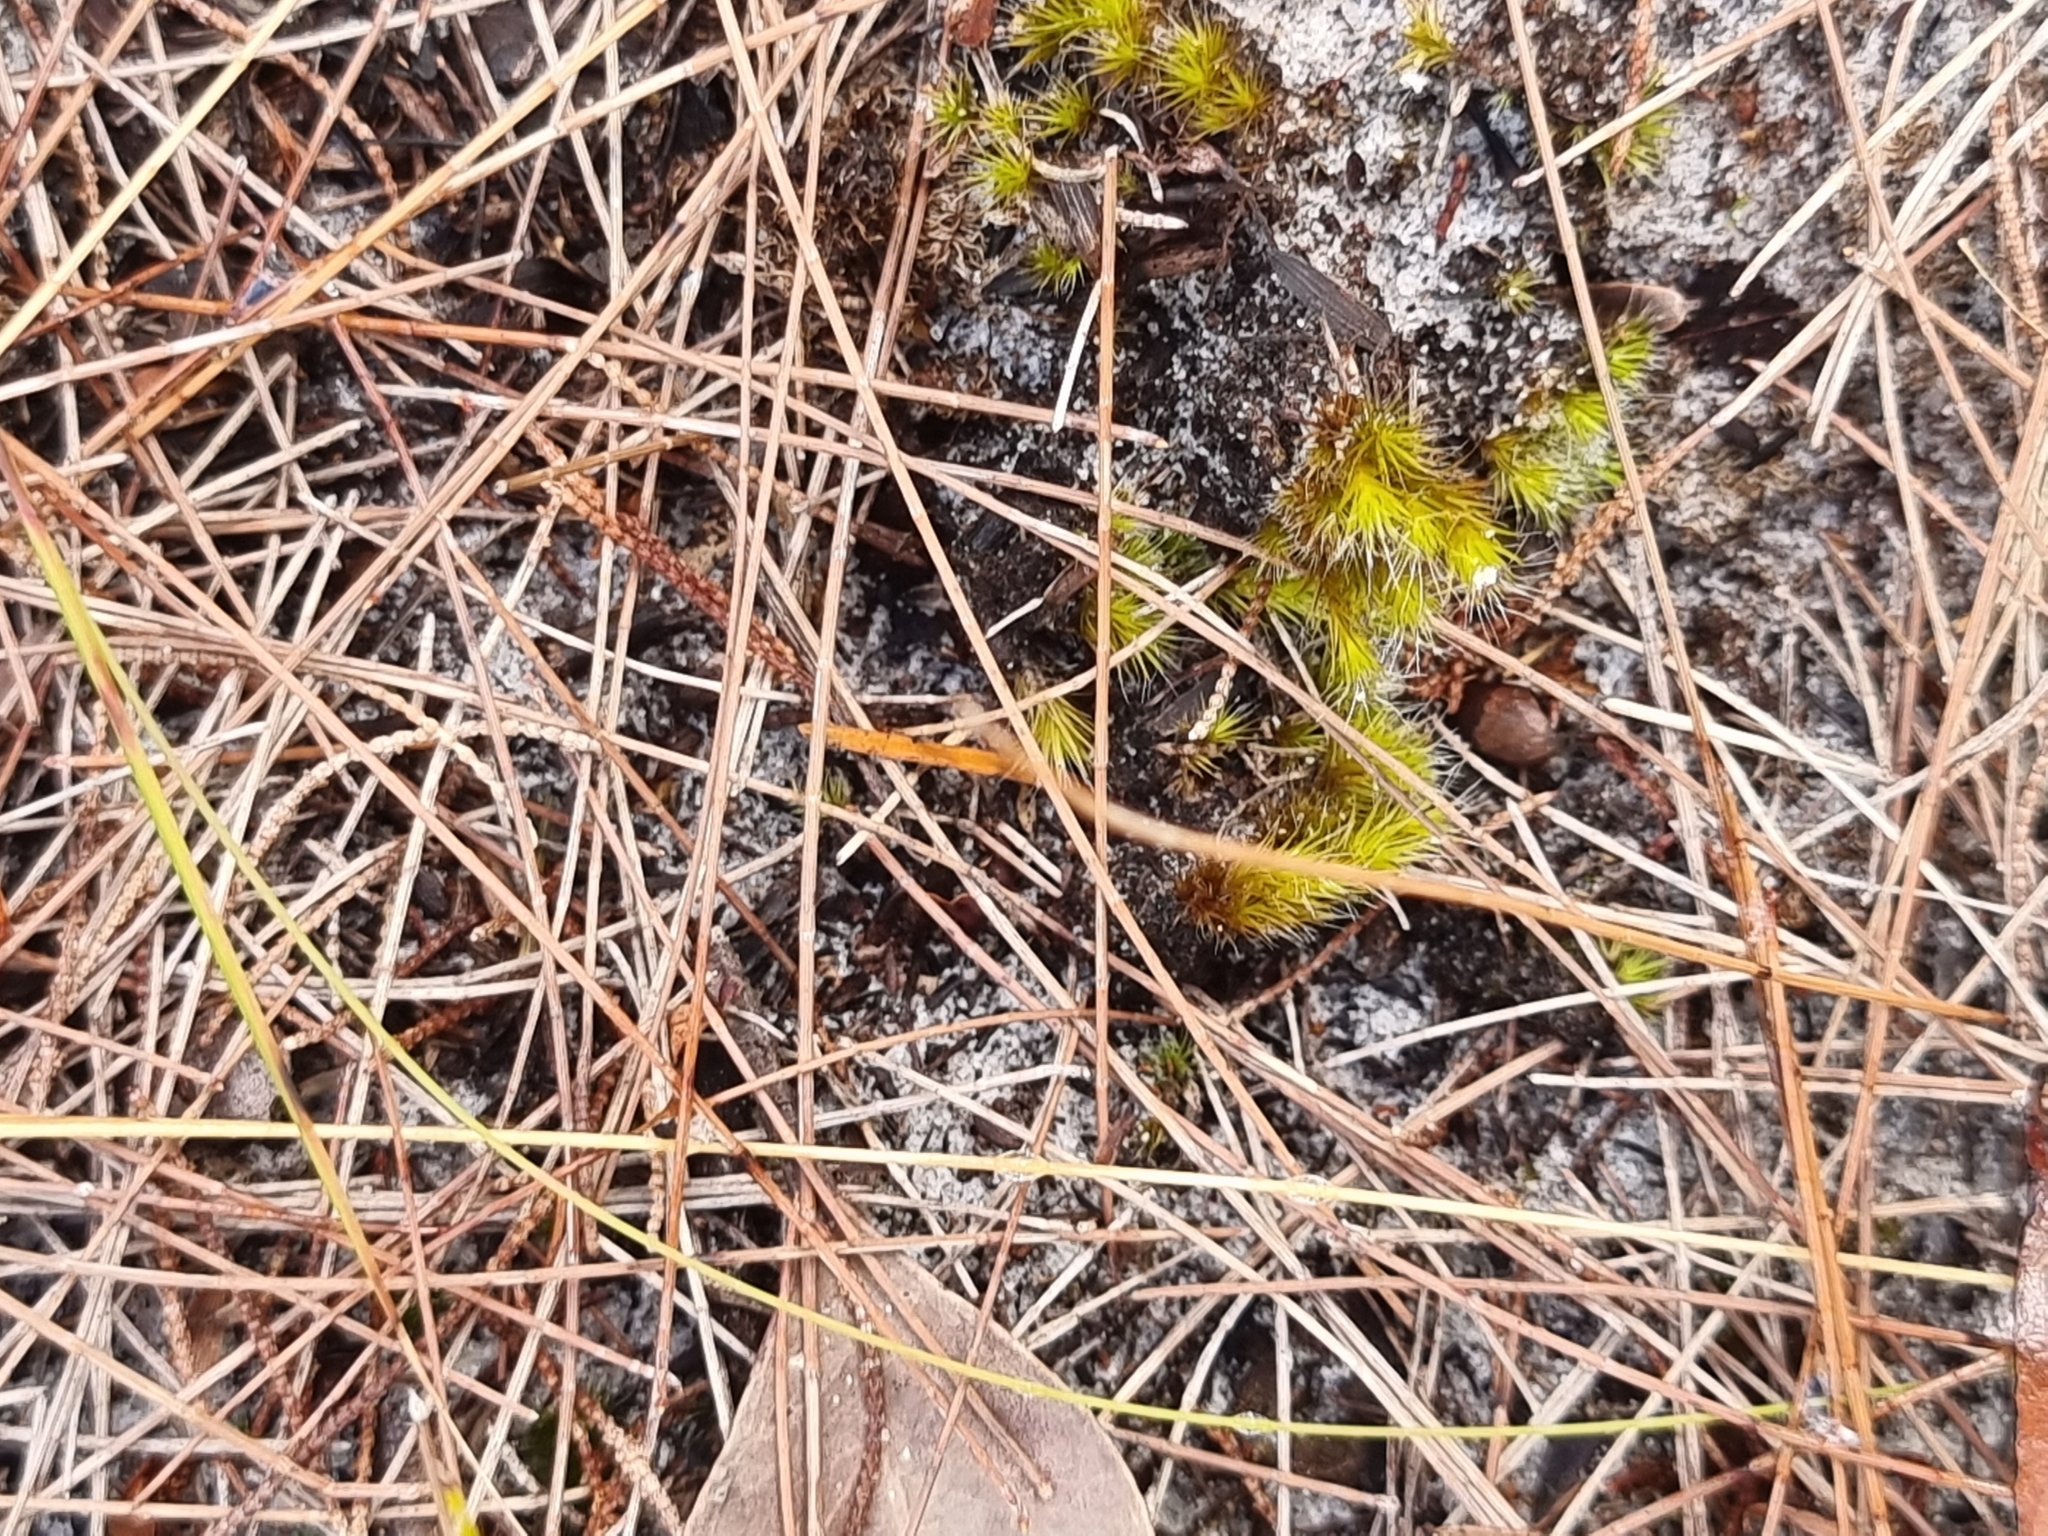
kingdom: Plantae
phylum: Bryophyta
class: Bryopsida
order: Dicranales
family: Leucobryaceae
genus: Campylopus
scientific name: Campylopus introflexus
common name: Heath star moss
